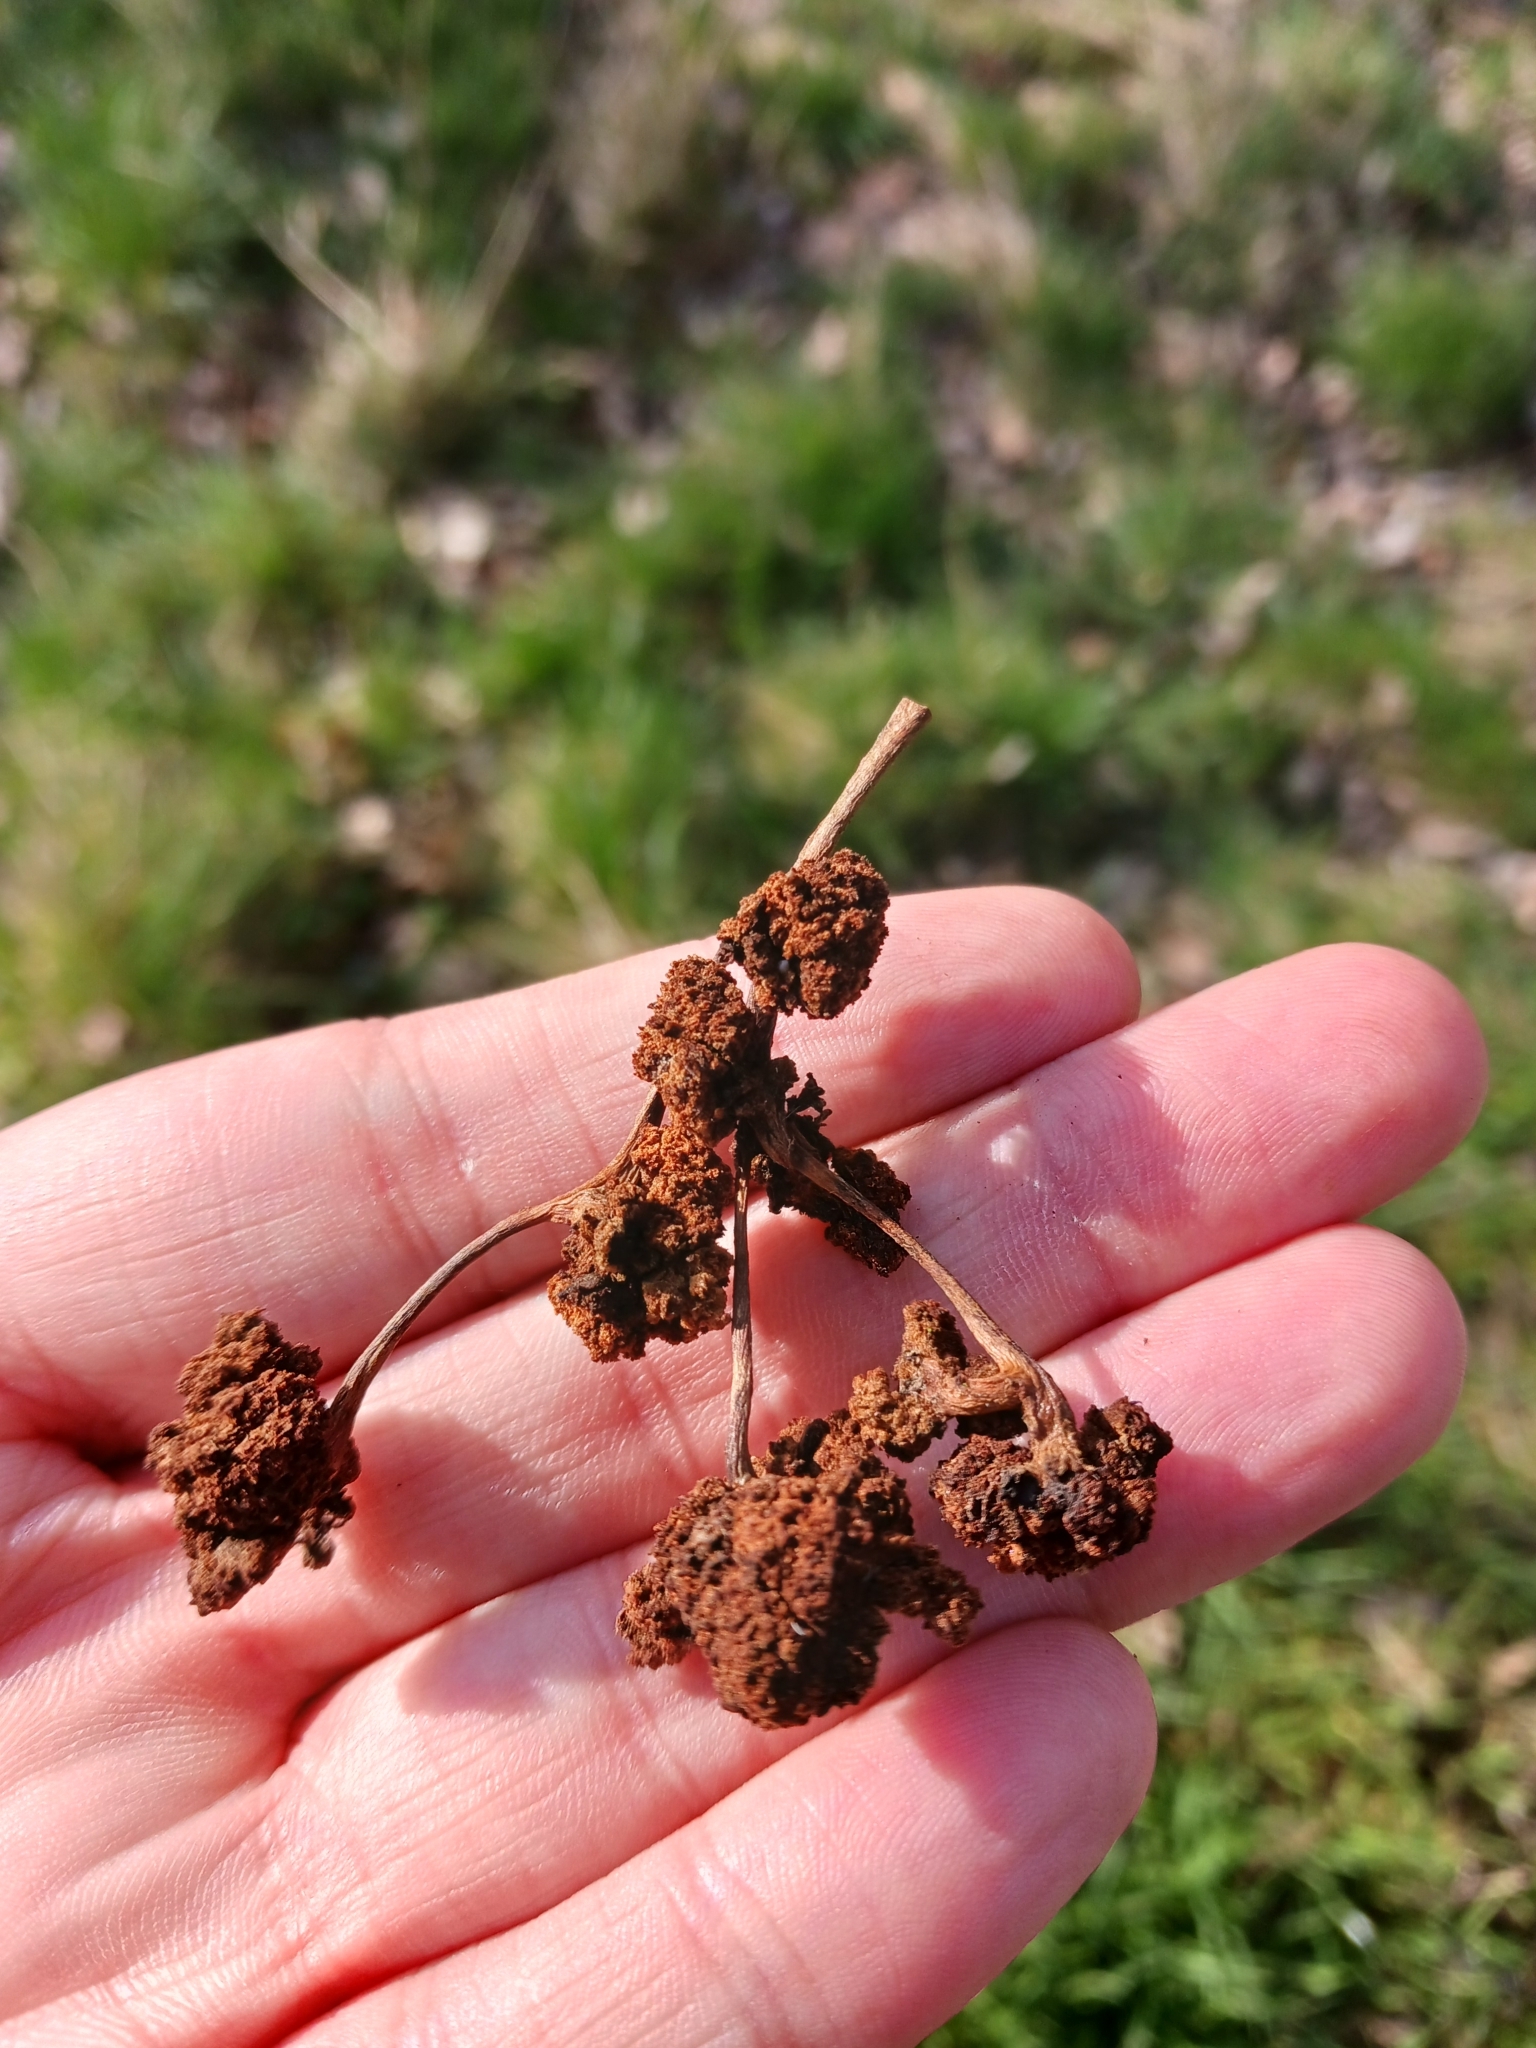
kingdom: Animalia
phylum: Arthropoda
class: Arachnida
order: Trombidiformes
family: Eriophyidae
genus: Aceria
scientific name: Aceria fraxinivora
